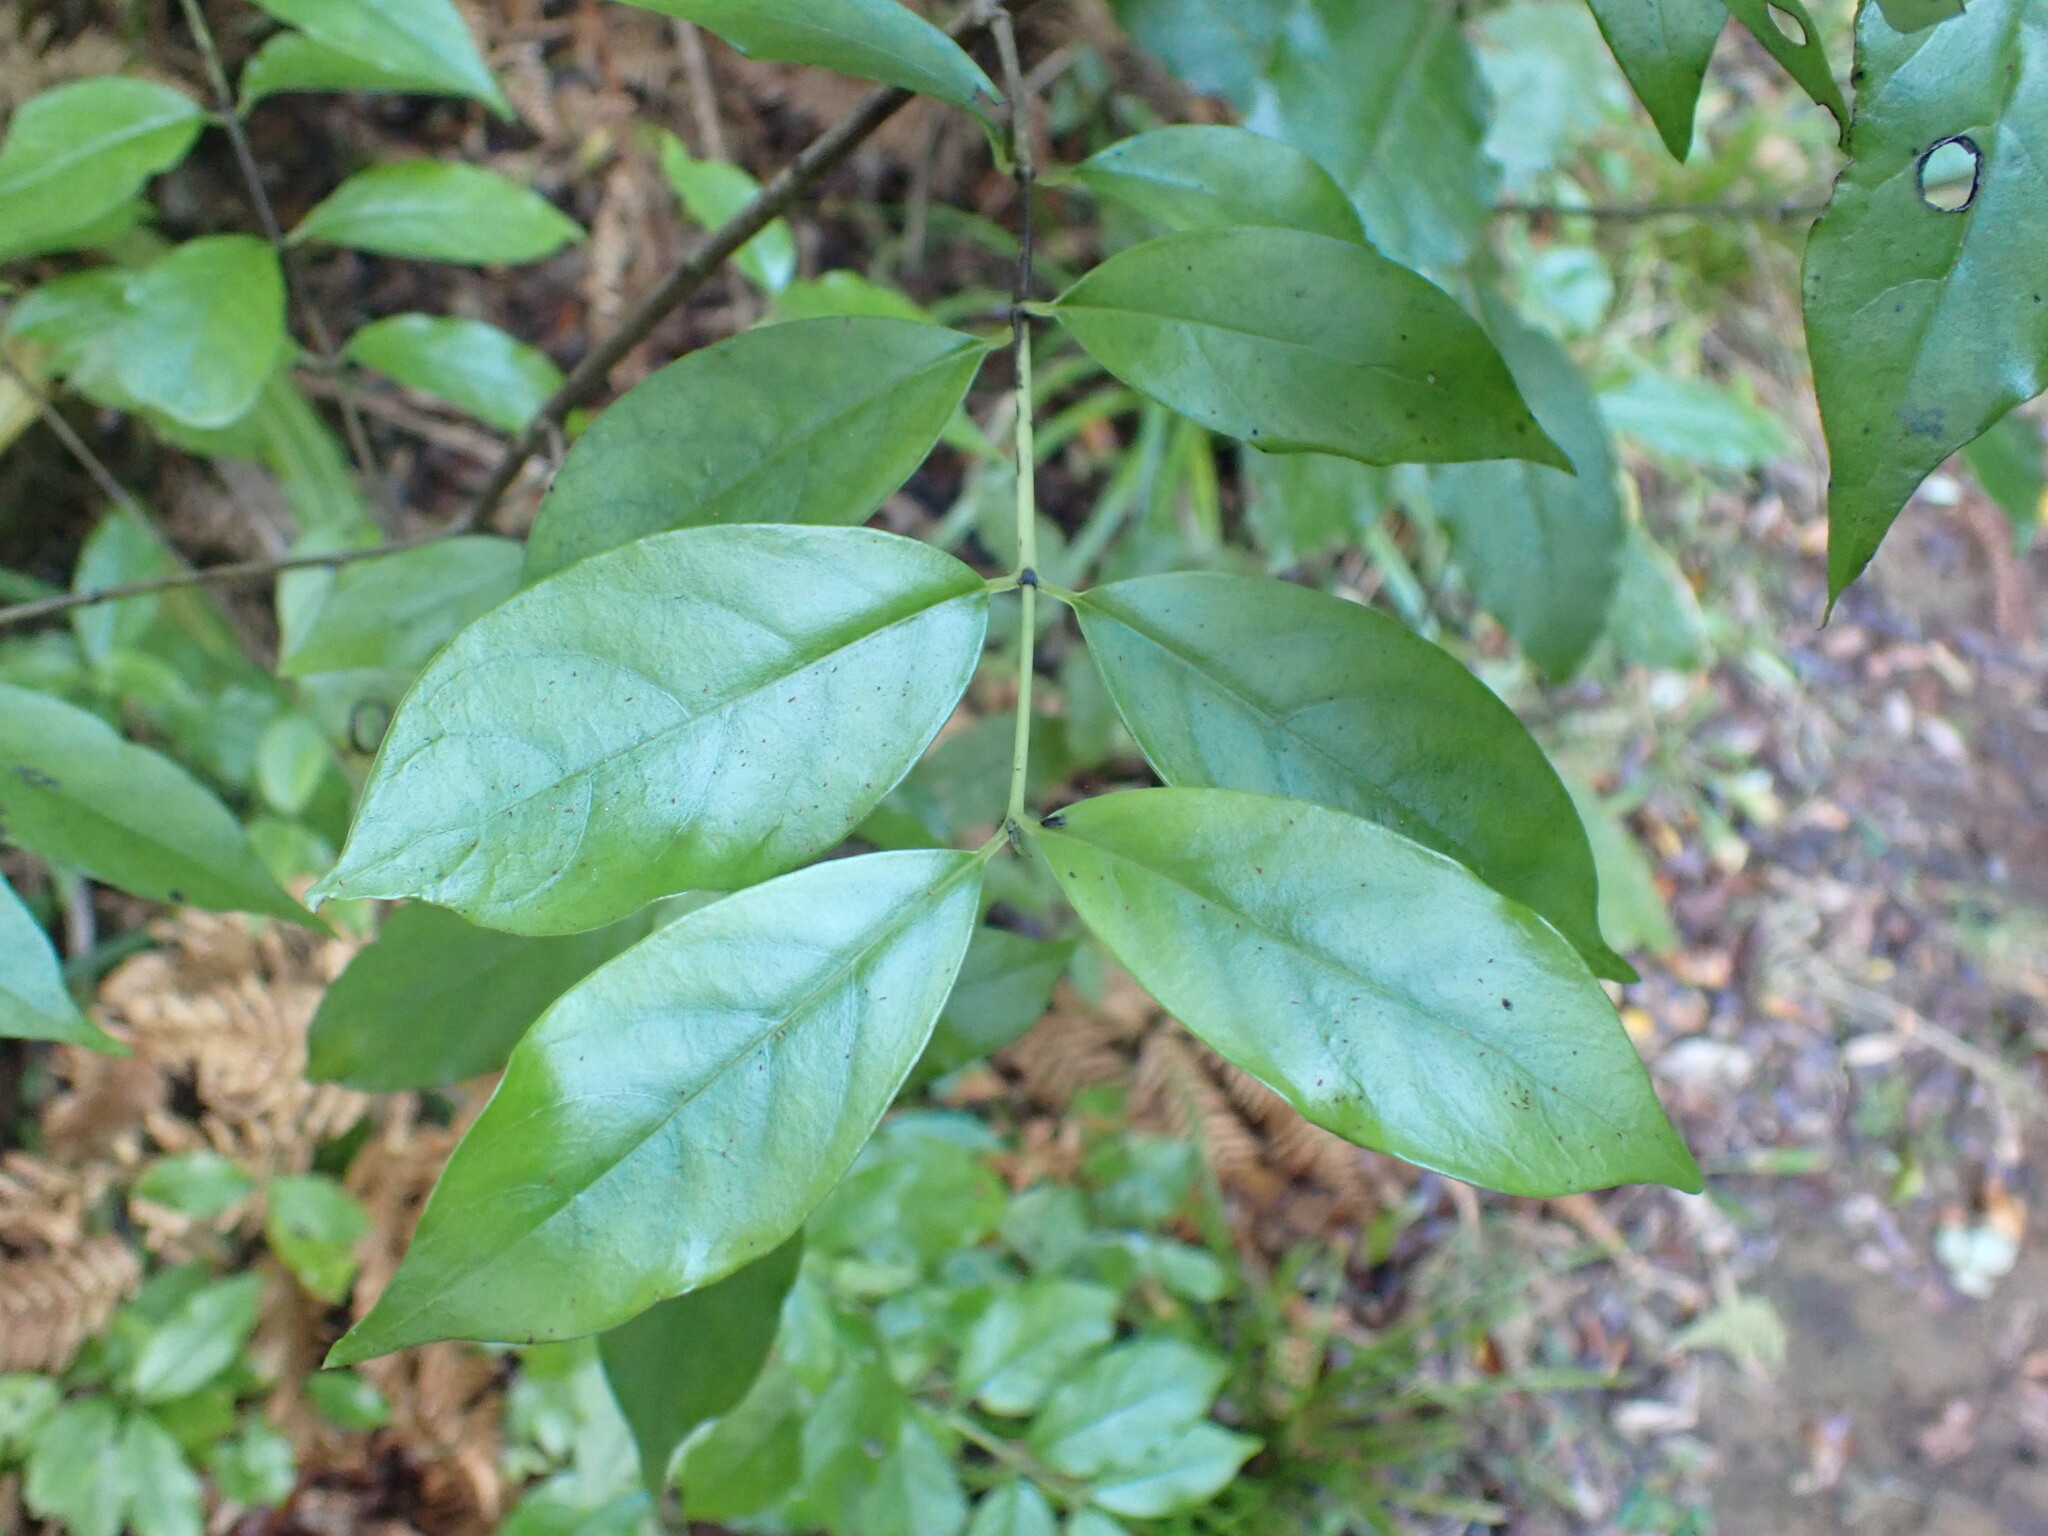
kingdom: Plantae
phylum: Tracheophyta
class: Magnoliopsida
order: Gentianales
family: Loganiaceae
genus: Geniostoma
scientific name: Geniostoma ligustrifolium
